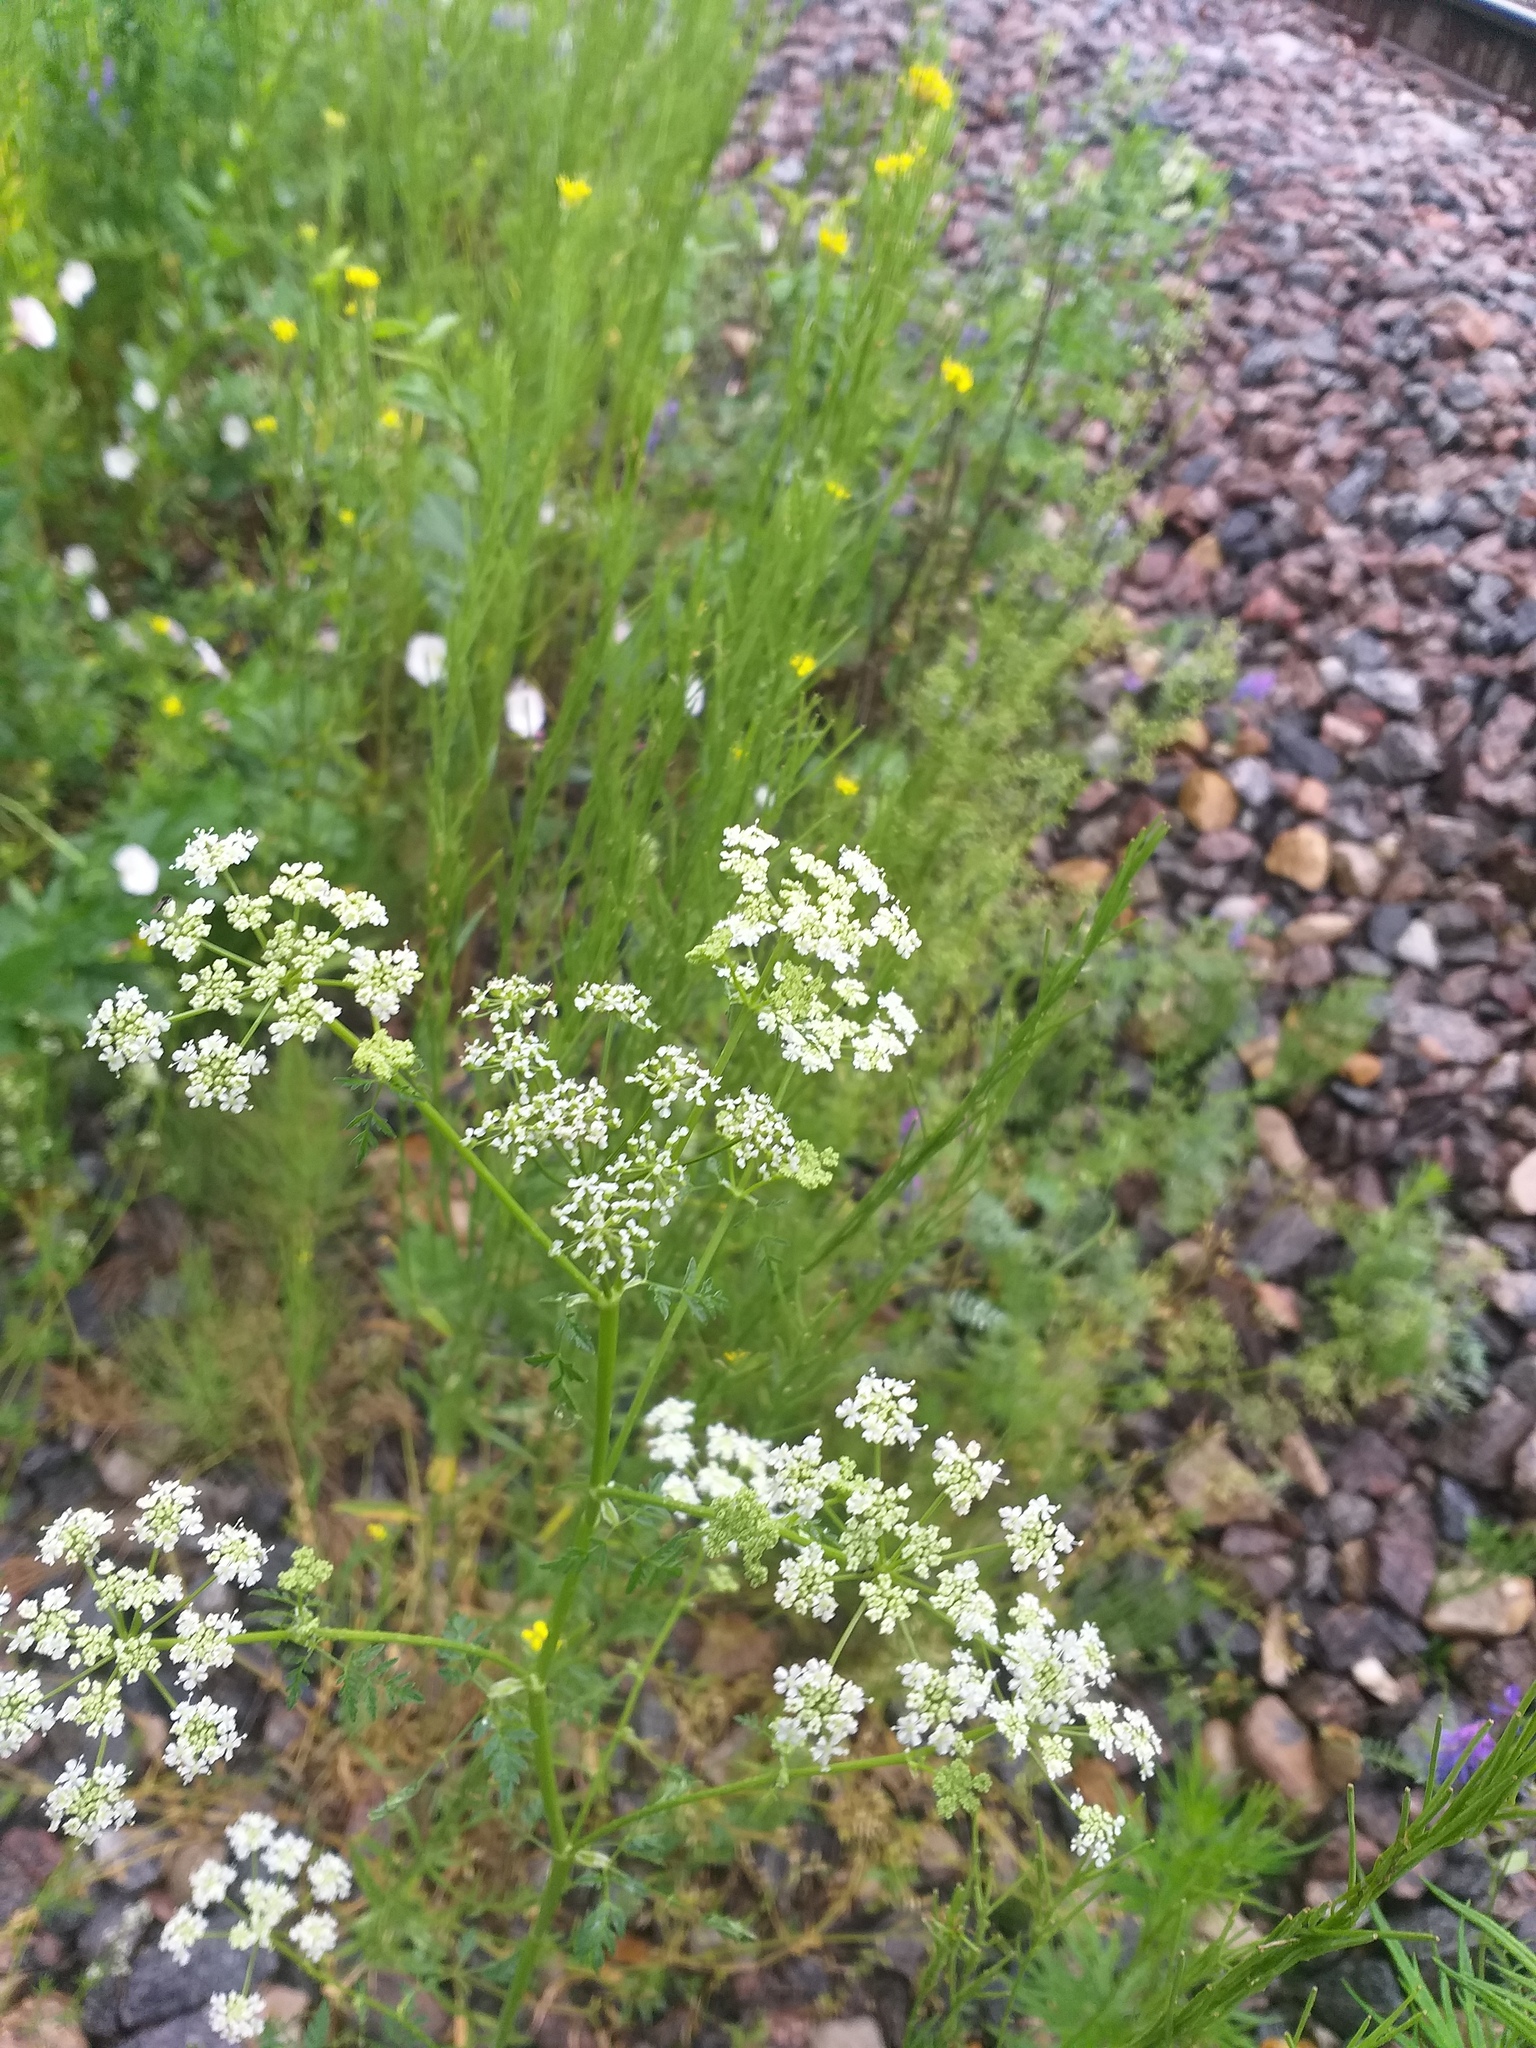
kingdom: Plantae
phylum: Tracheophyta
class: Magnoliopsida
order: Apiales
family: Apiaceae
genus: Conium
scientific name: Conium maculatum
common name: Hemlock
